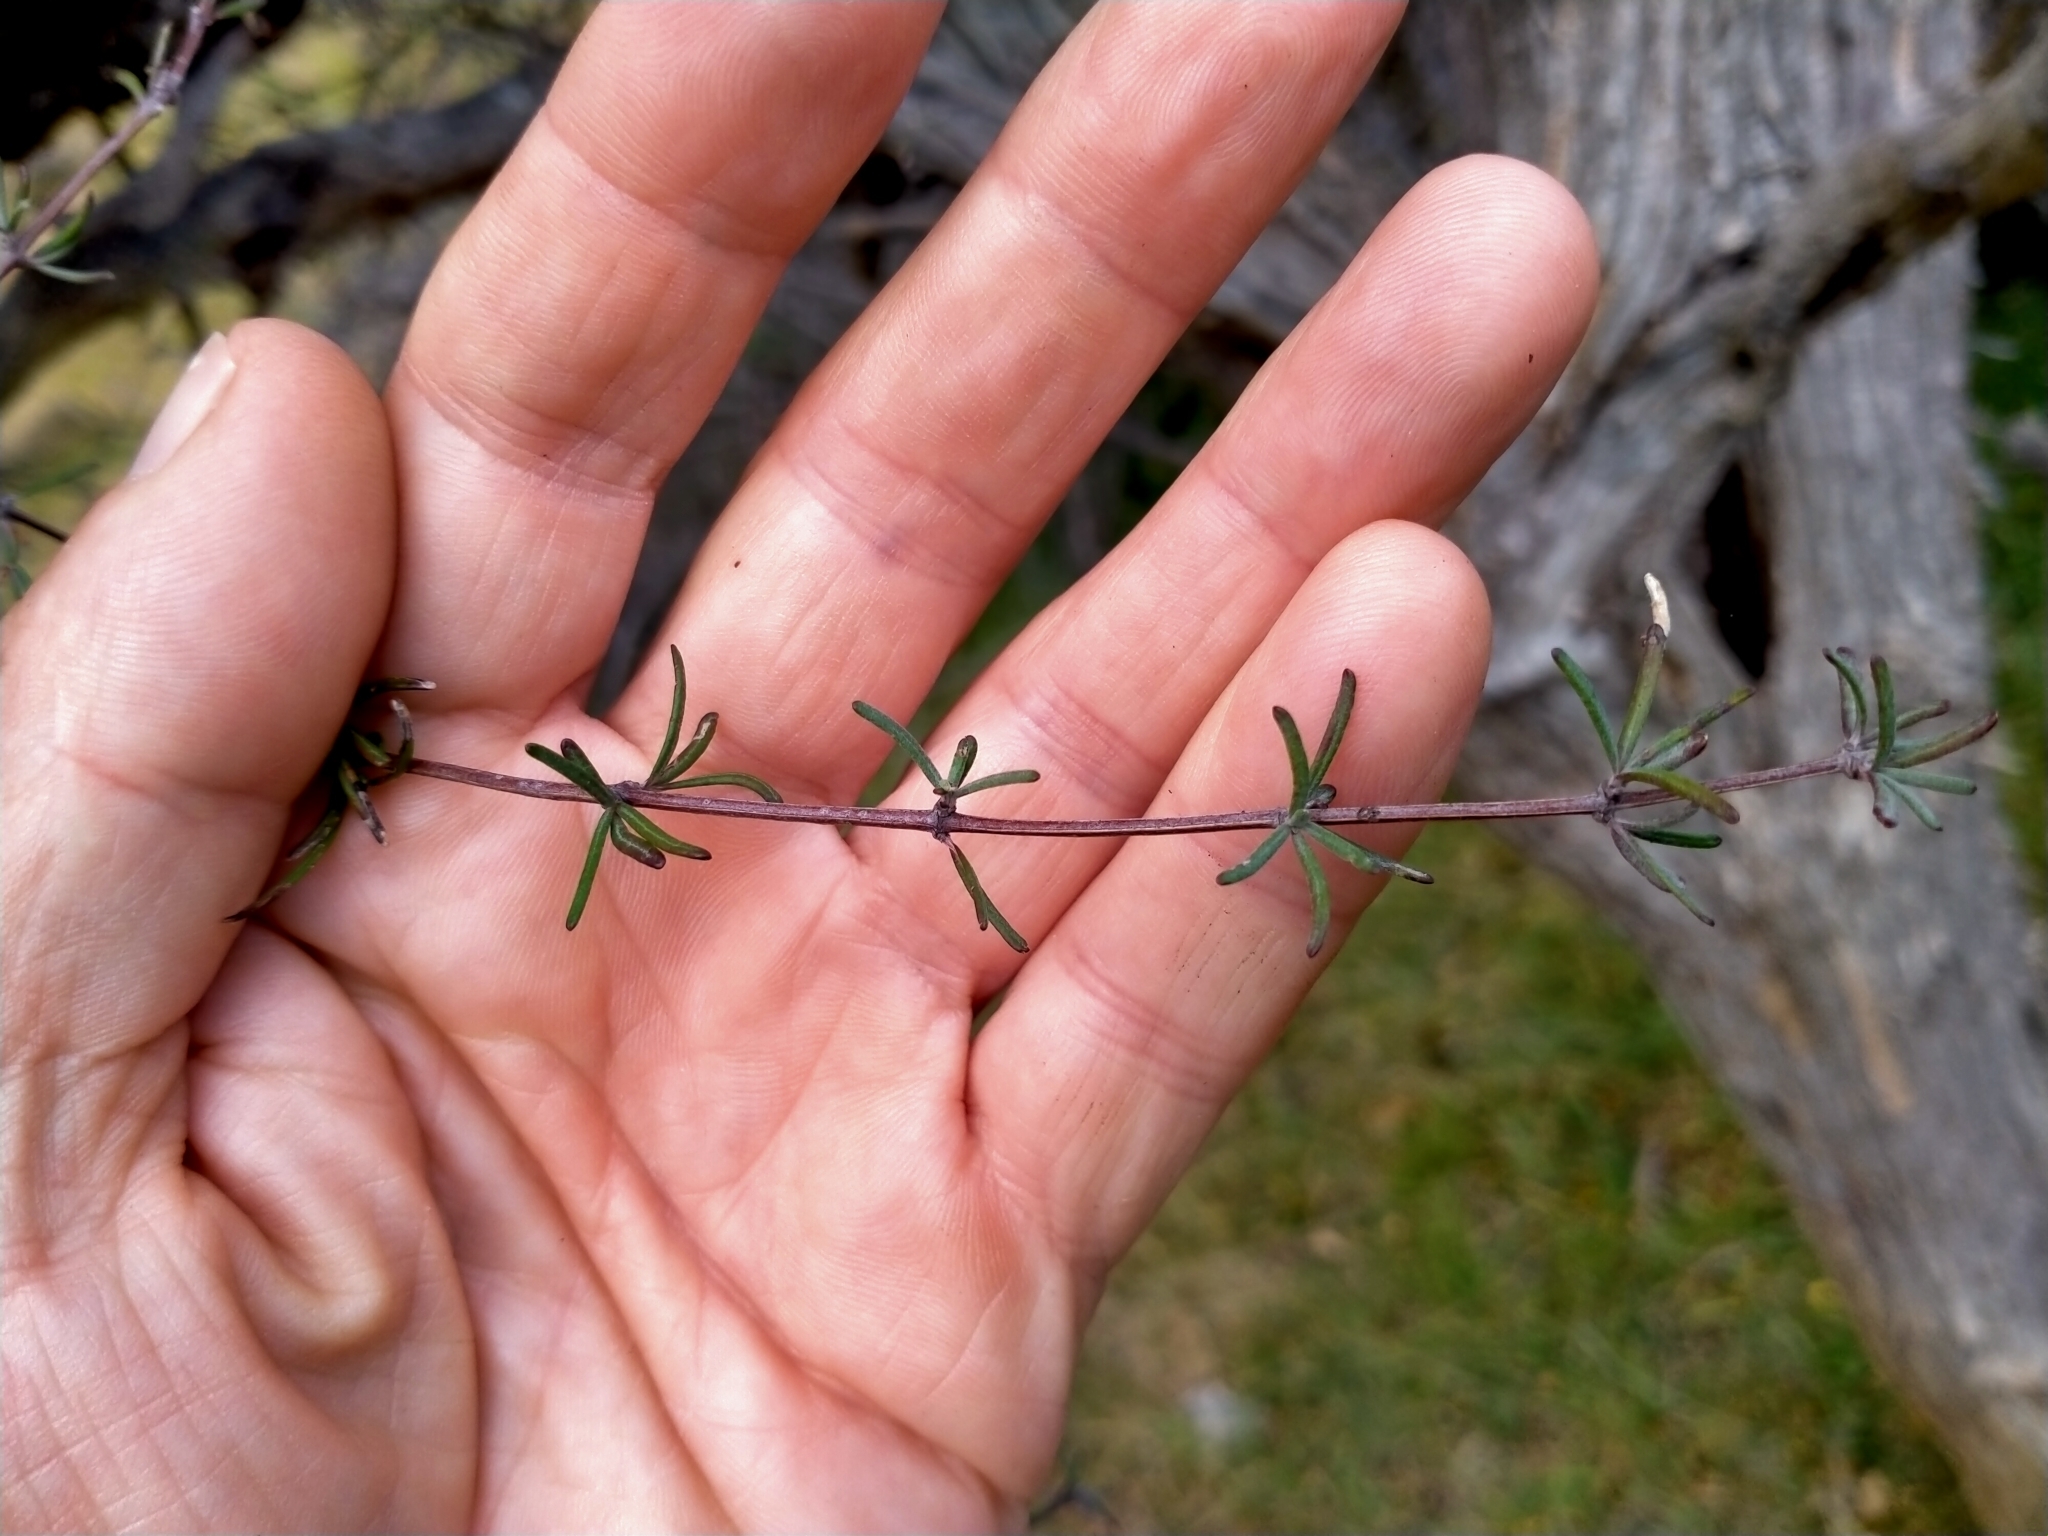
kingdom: Plantae
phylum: Tracheophyta
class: Magnoliopsida
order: Asterales
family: Asteraceae
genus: Olearia
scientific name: Olearia lineata
